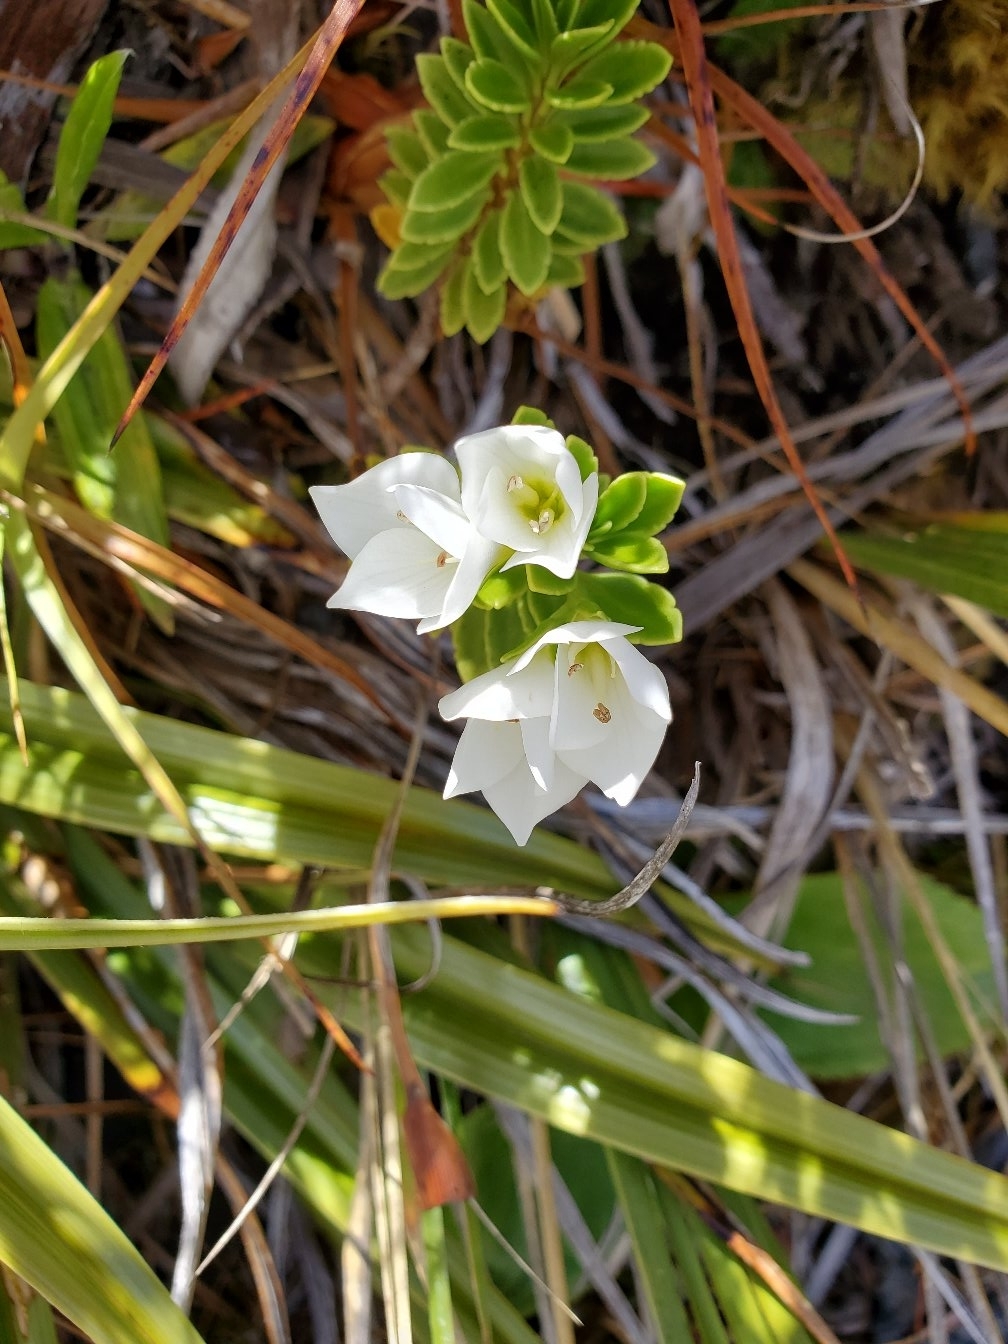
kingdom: Plantae
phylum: Tracheophyta
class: Magnoliopsida
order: Lamiales
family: Plantaginaceae
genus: Veronica
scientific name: Veronica macrantha
